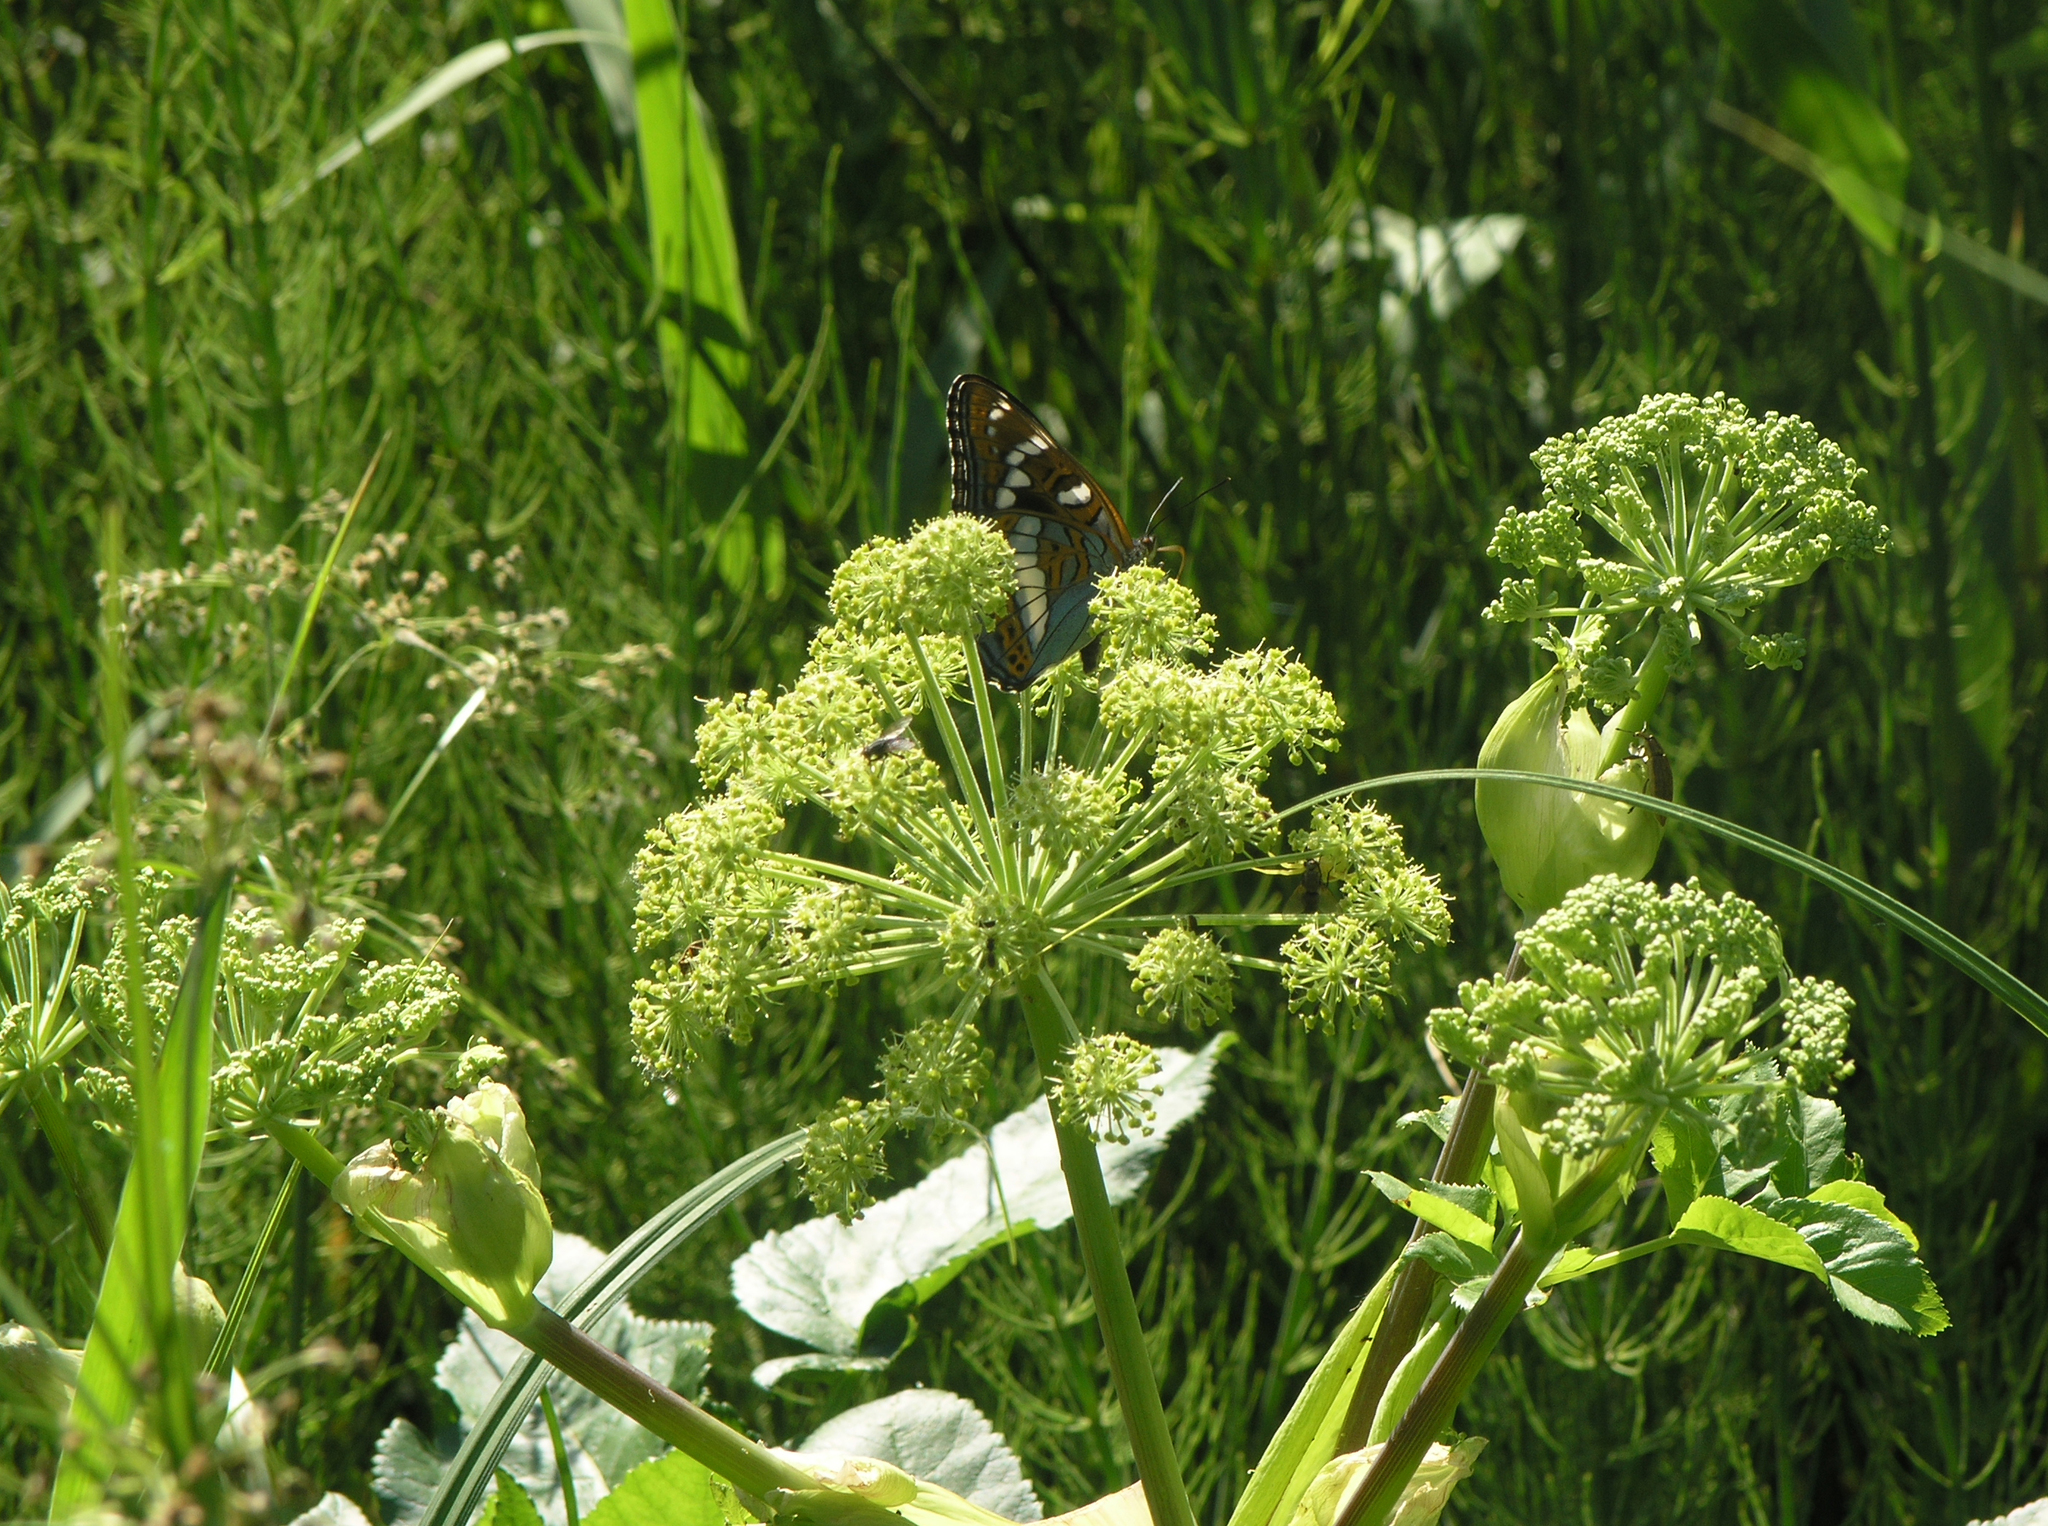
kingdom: Animalia
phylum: Arthropoda
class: Insecta
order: Lepidoptera
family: Nymphalidae
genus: Limenitis
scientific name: Limenitis populi
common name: Poplar admiral
